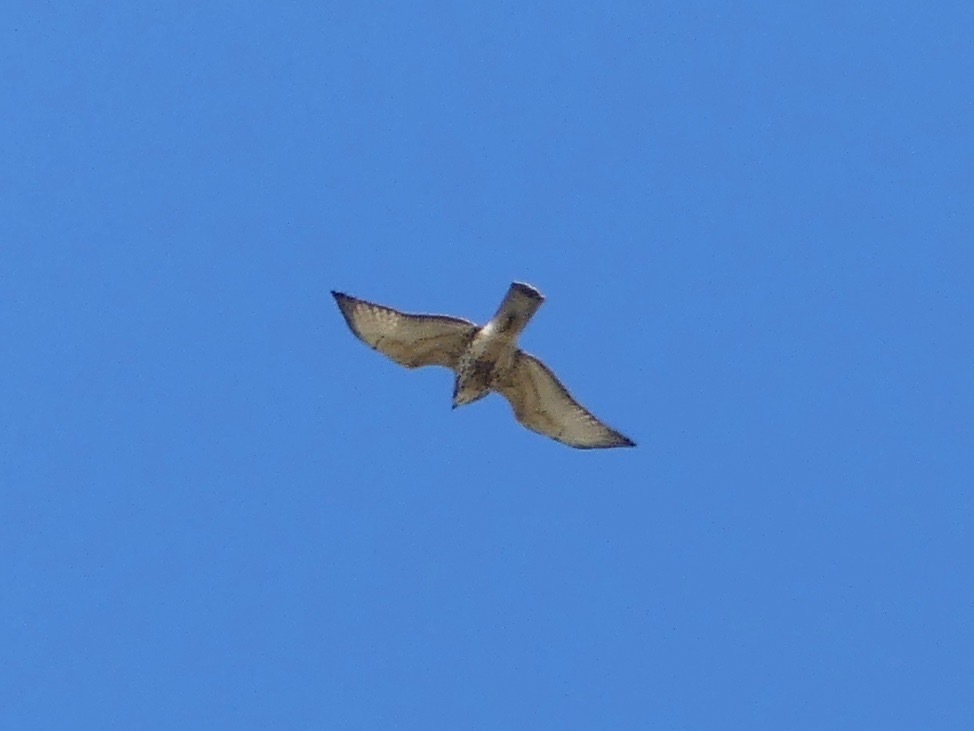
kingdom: Animalia
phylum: Chordata
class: Aves
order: Accipitriformes
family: Accipitridae
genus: Buteo
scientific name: Buteo platypterus
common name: Broad-winged hawk
